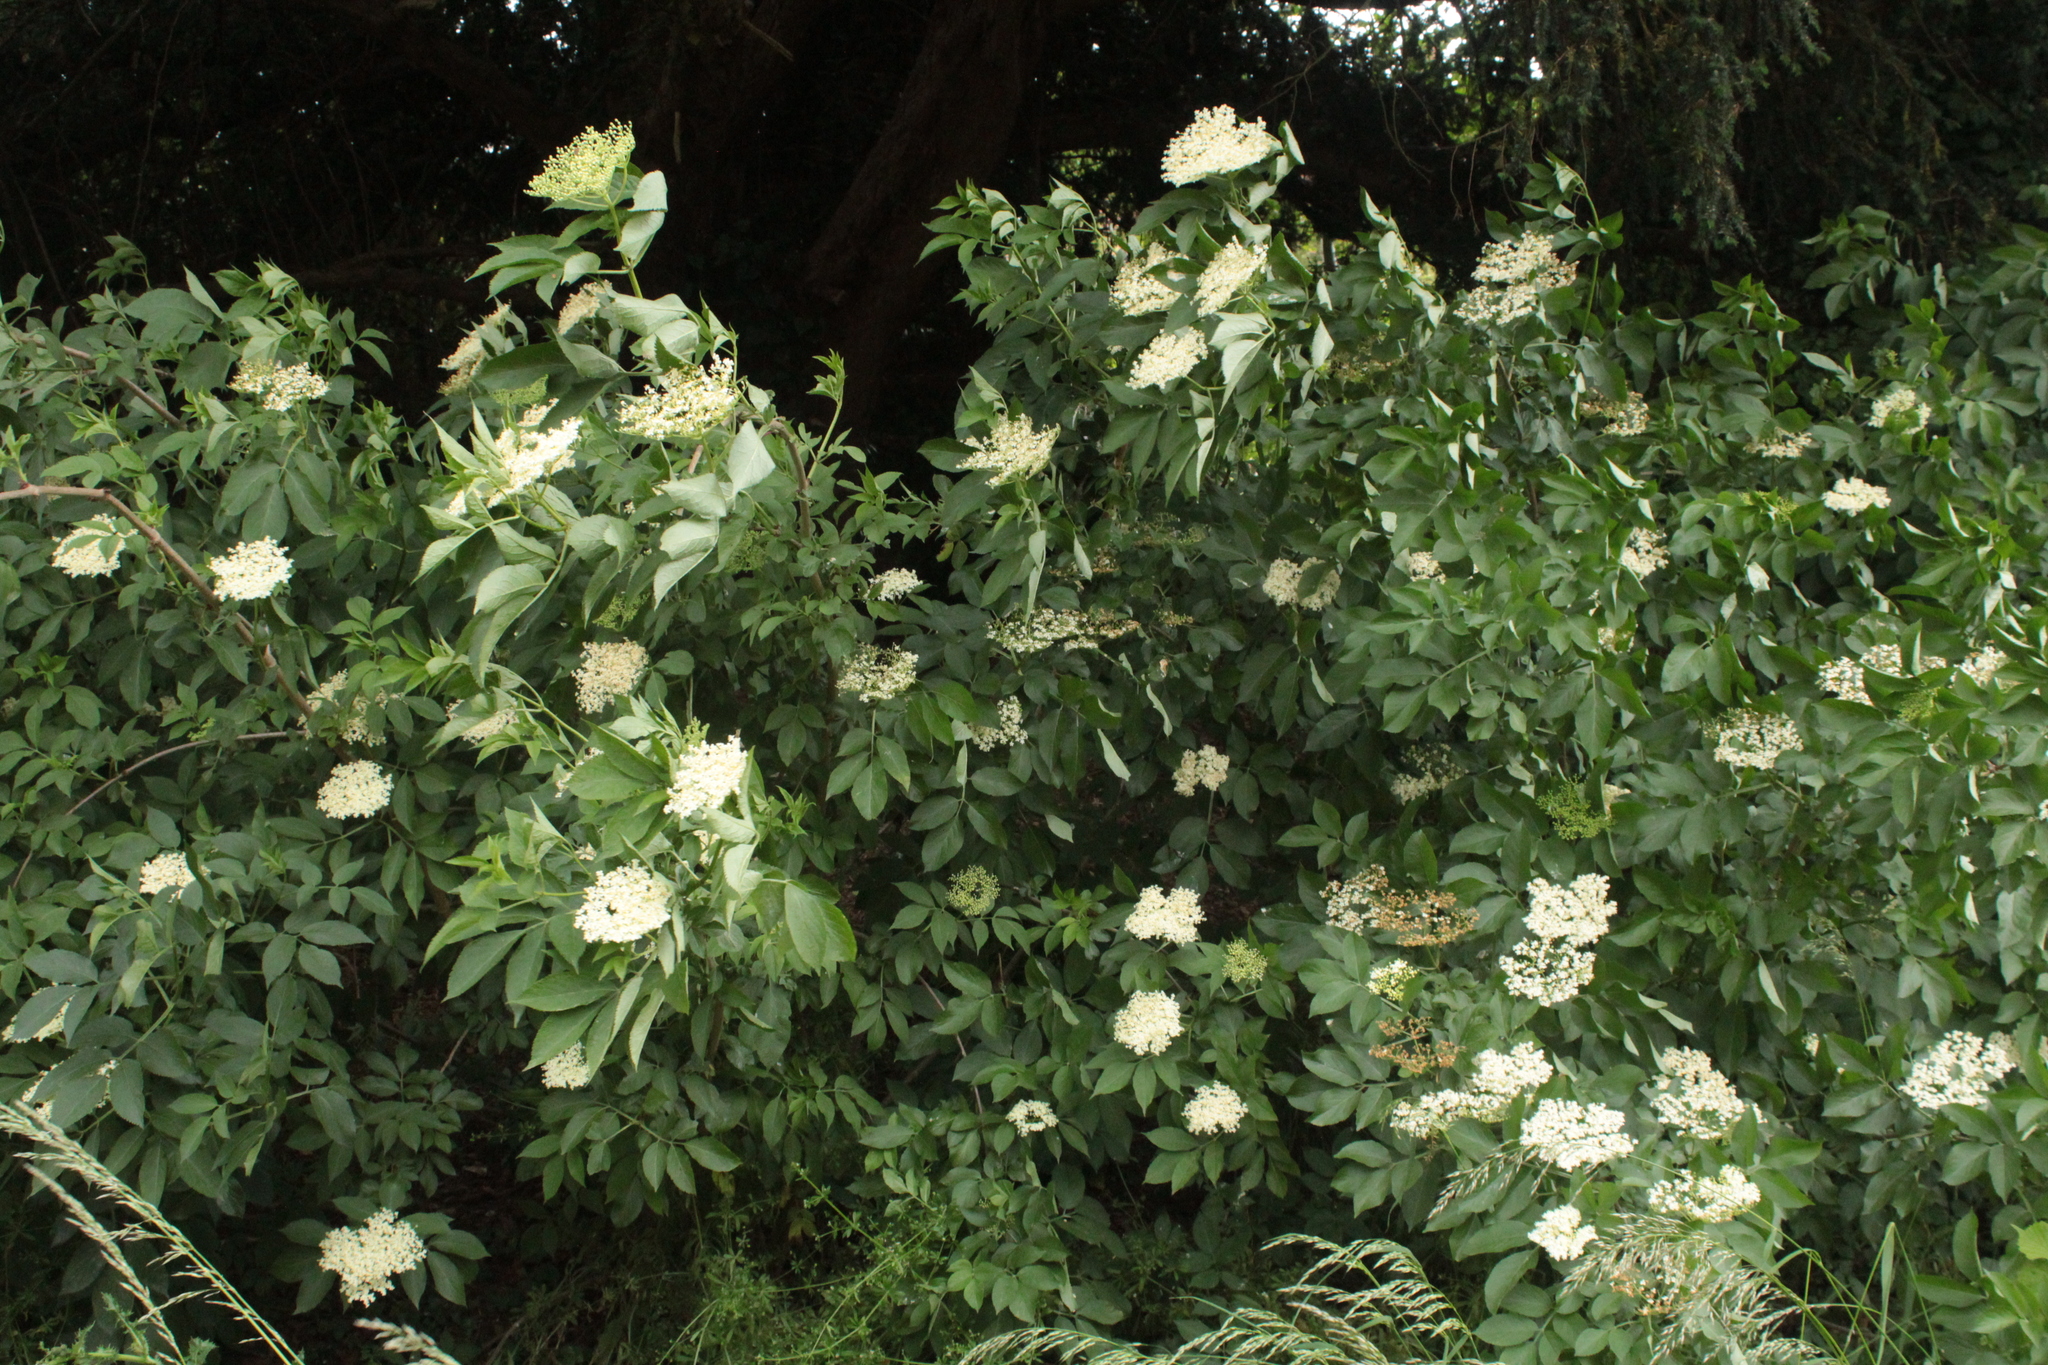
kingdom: Plantae
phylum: Tracheophyta
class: Magnoliopsida
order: Dipsacales
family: Viburnaceae
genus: Sambucus
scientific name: Sambucus nigra
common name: Elder
